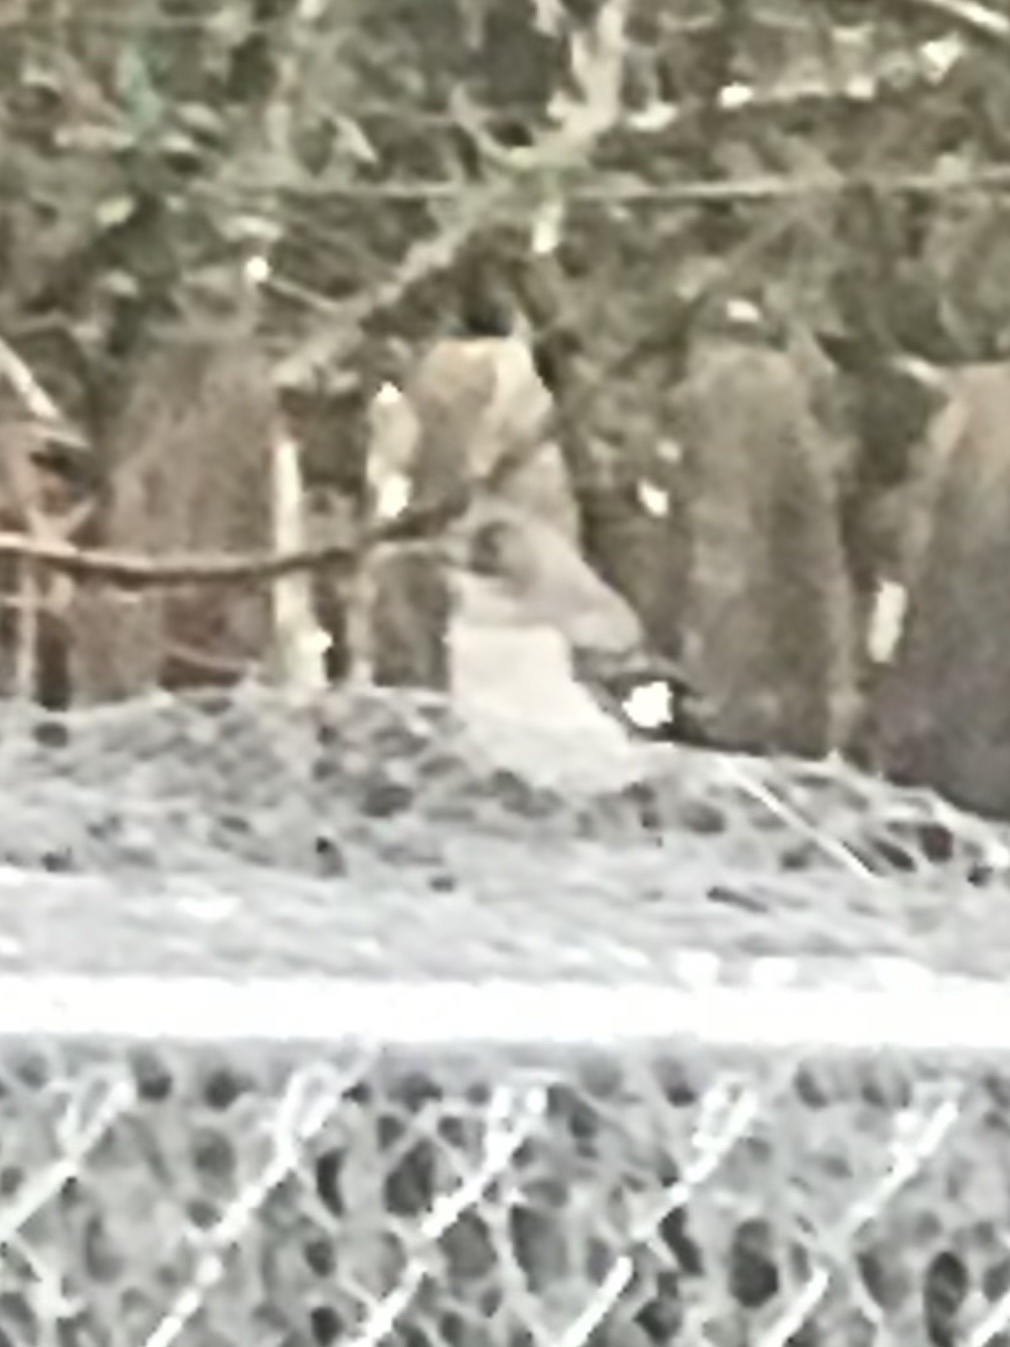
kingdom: Animalia
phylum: Chordata
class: Aves
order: Passeriformes
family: Mimidae
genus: Mimus
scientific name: Mimus polyglottos
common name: Northern mockingbird
